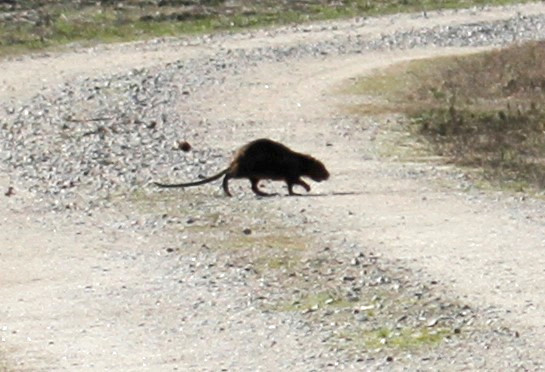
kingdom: Animalia
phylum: Chordata
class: Mammalia
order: Rodentia
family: Myocastoridae
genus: Myocastor
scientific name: Myocastor coypus
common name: Coypu
